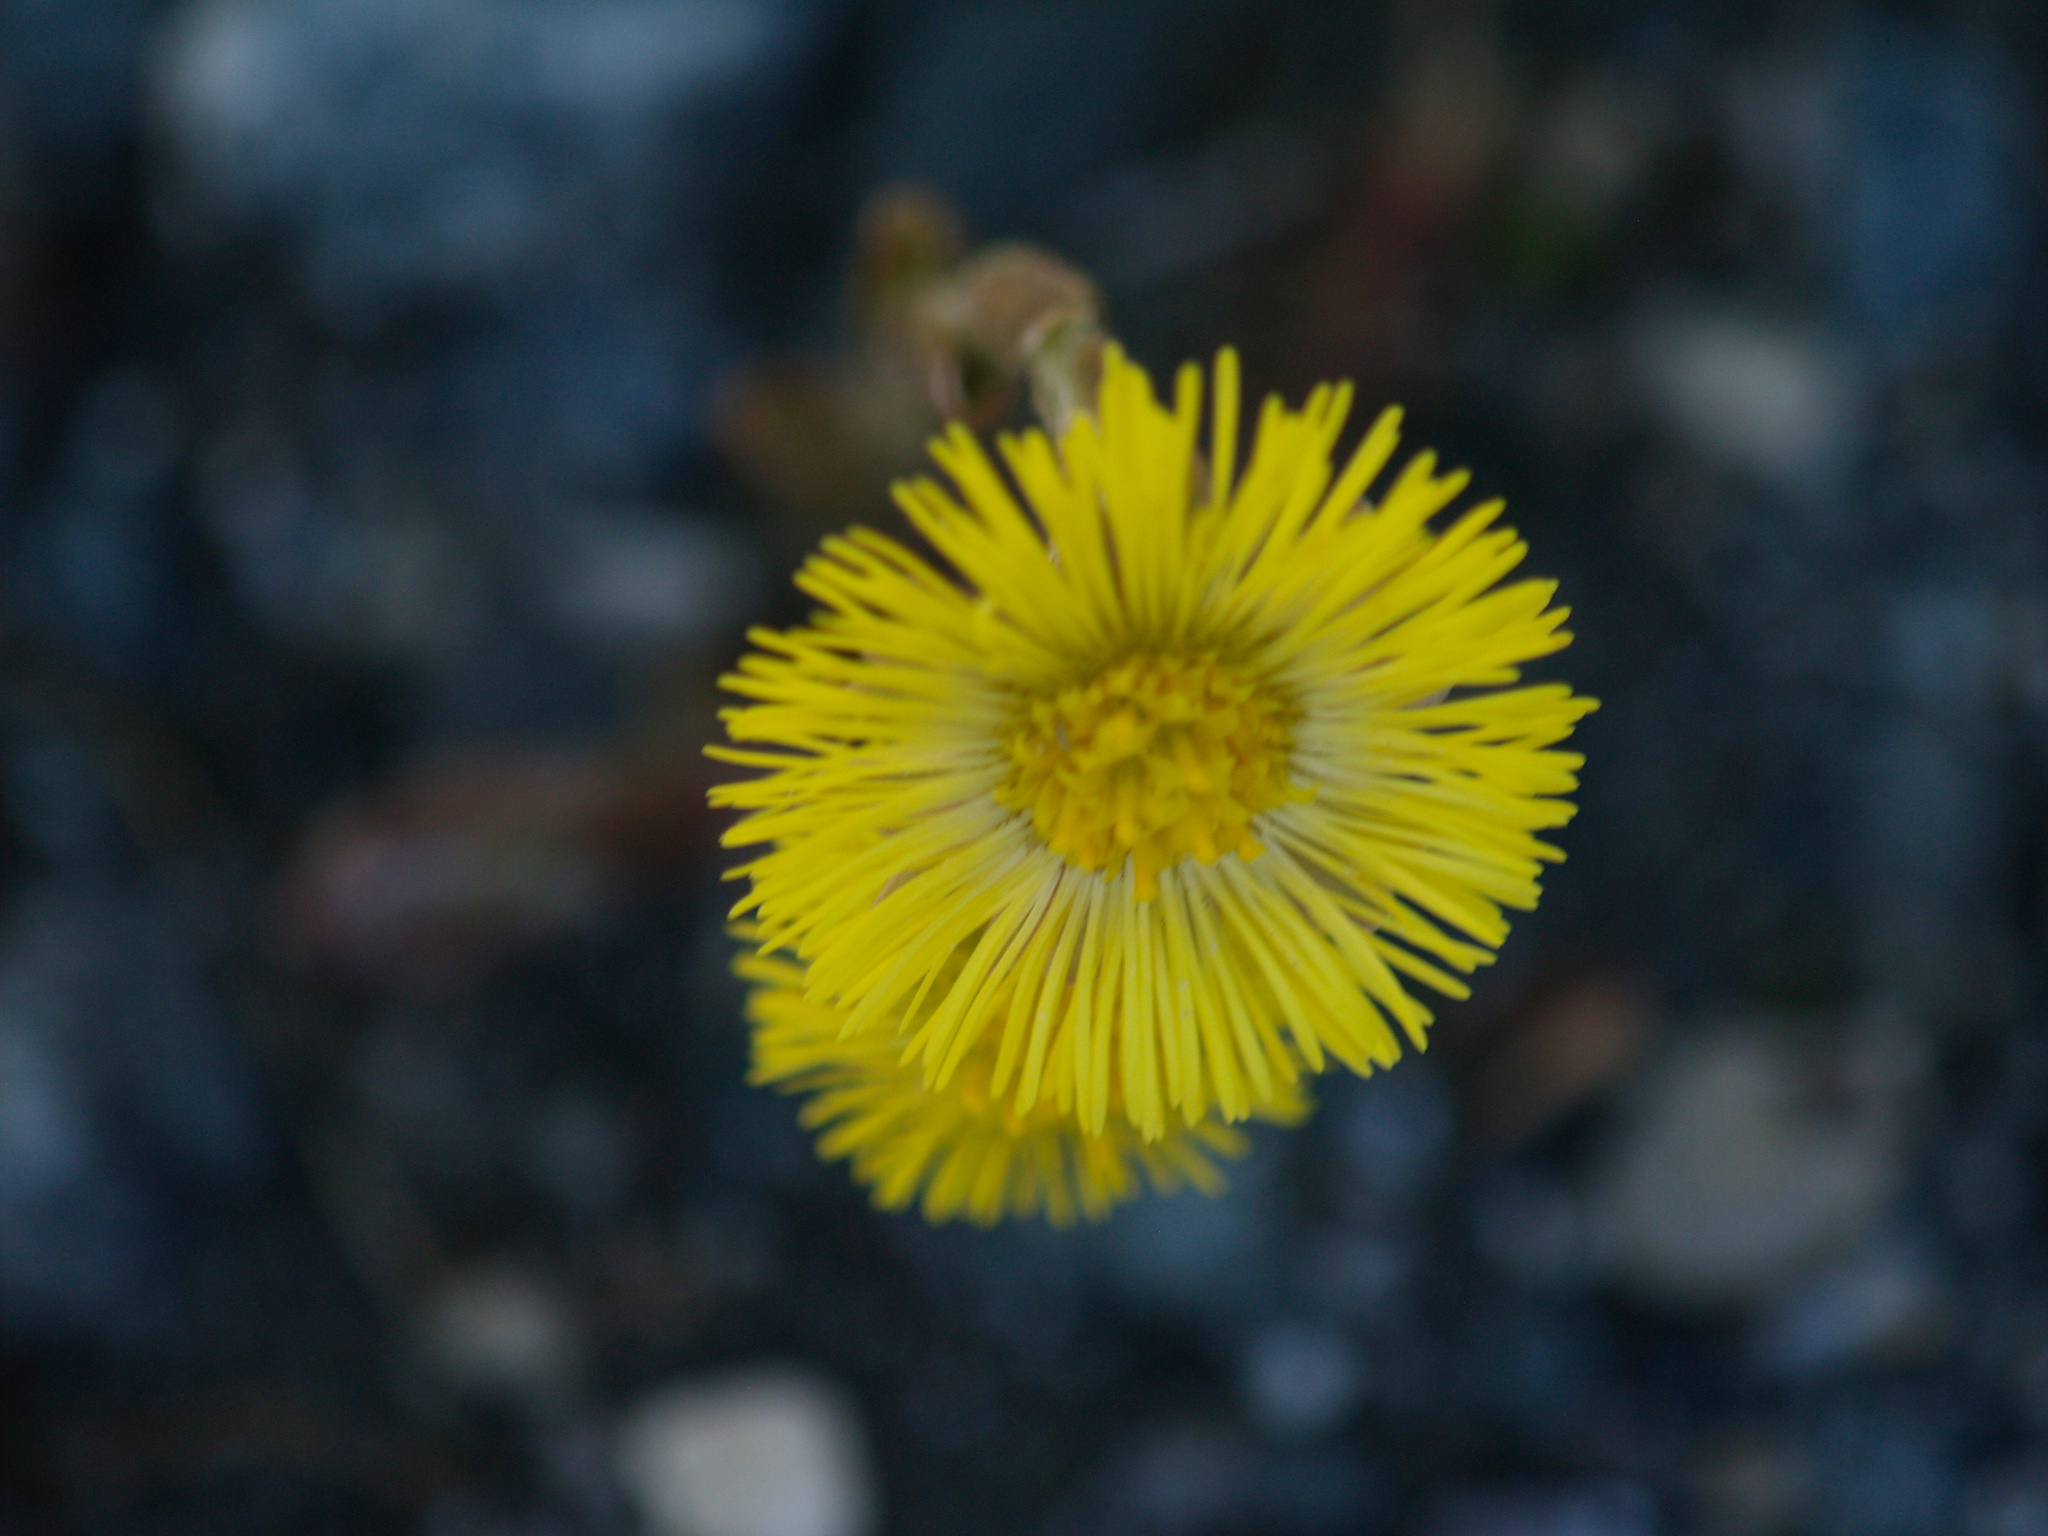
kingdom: Plantae
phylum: Tracheophyta
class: Magnoliopsida
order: Asterales
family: Asteraceae
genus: Tussilago
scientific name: Tussilago farfara
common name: Coltsfoot
